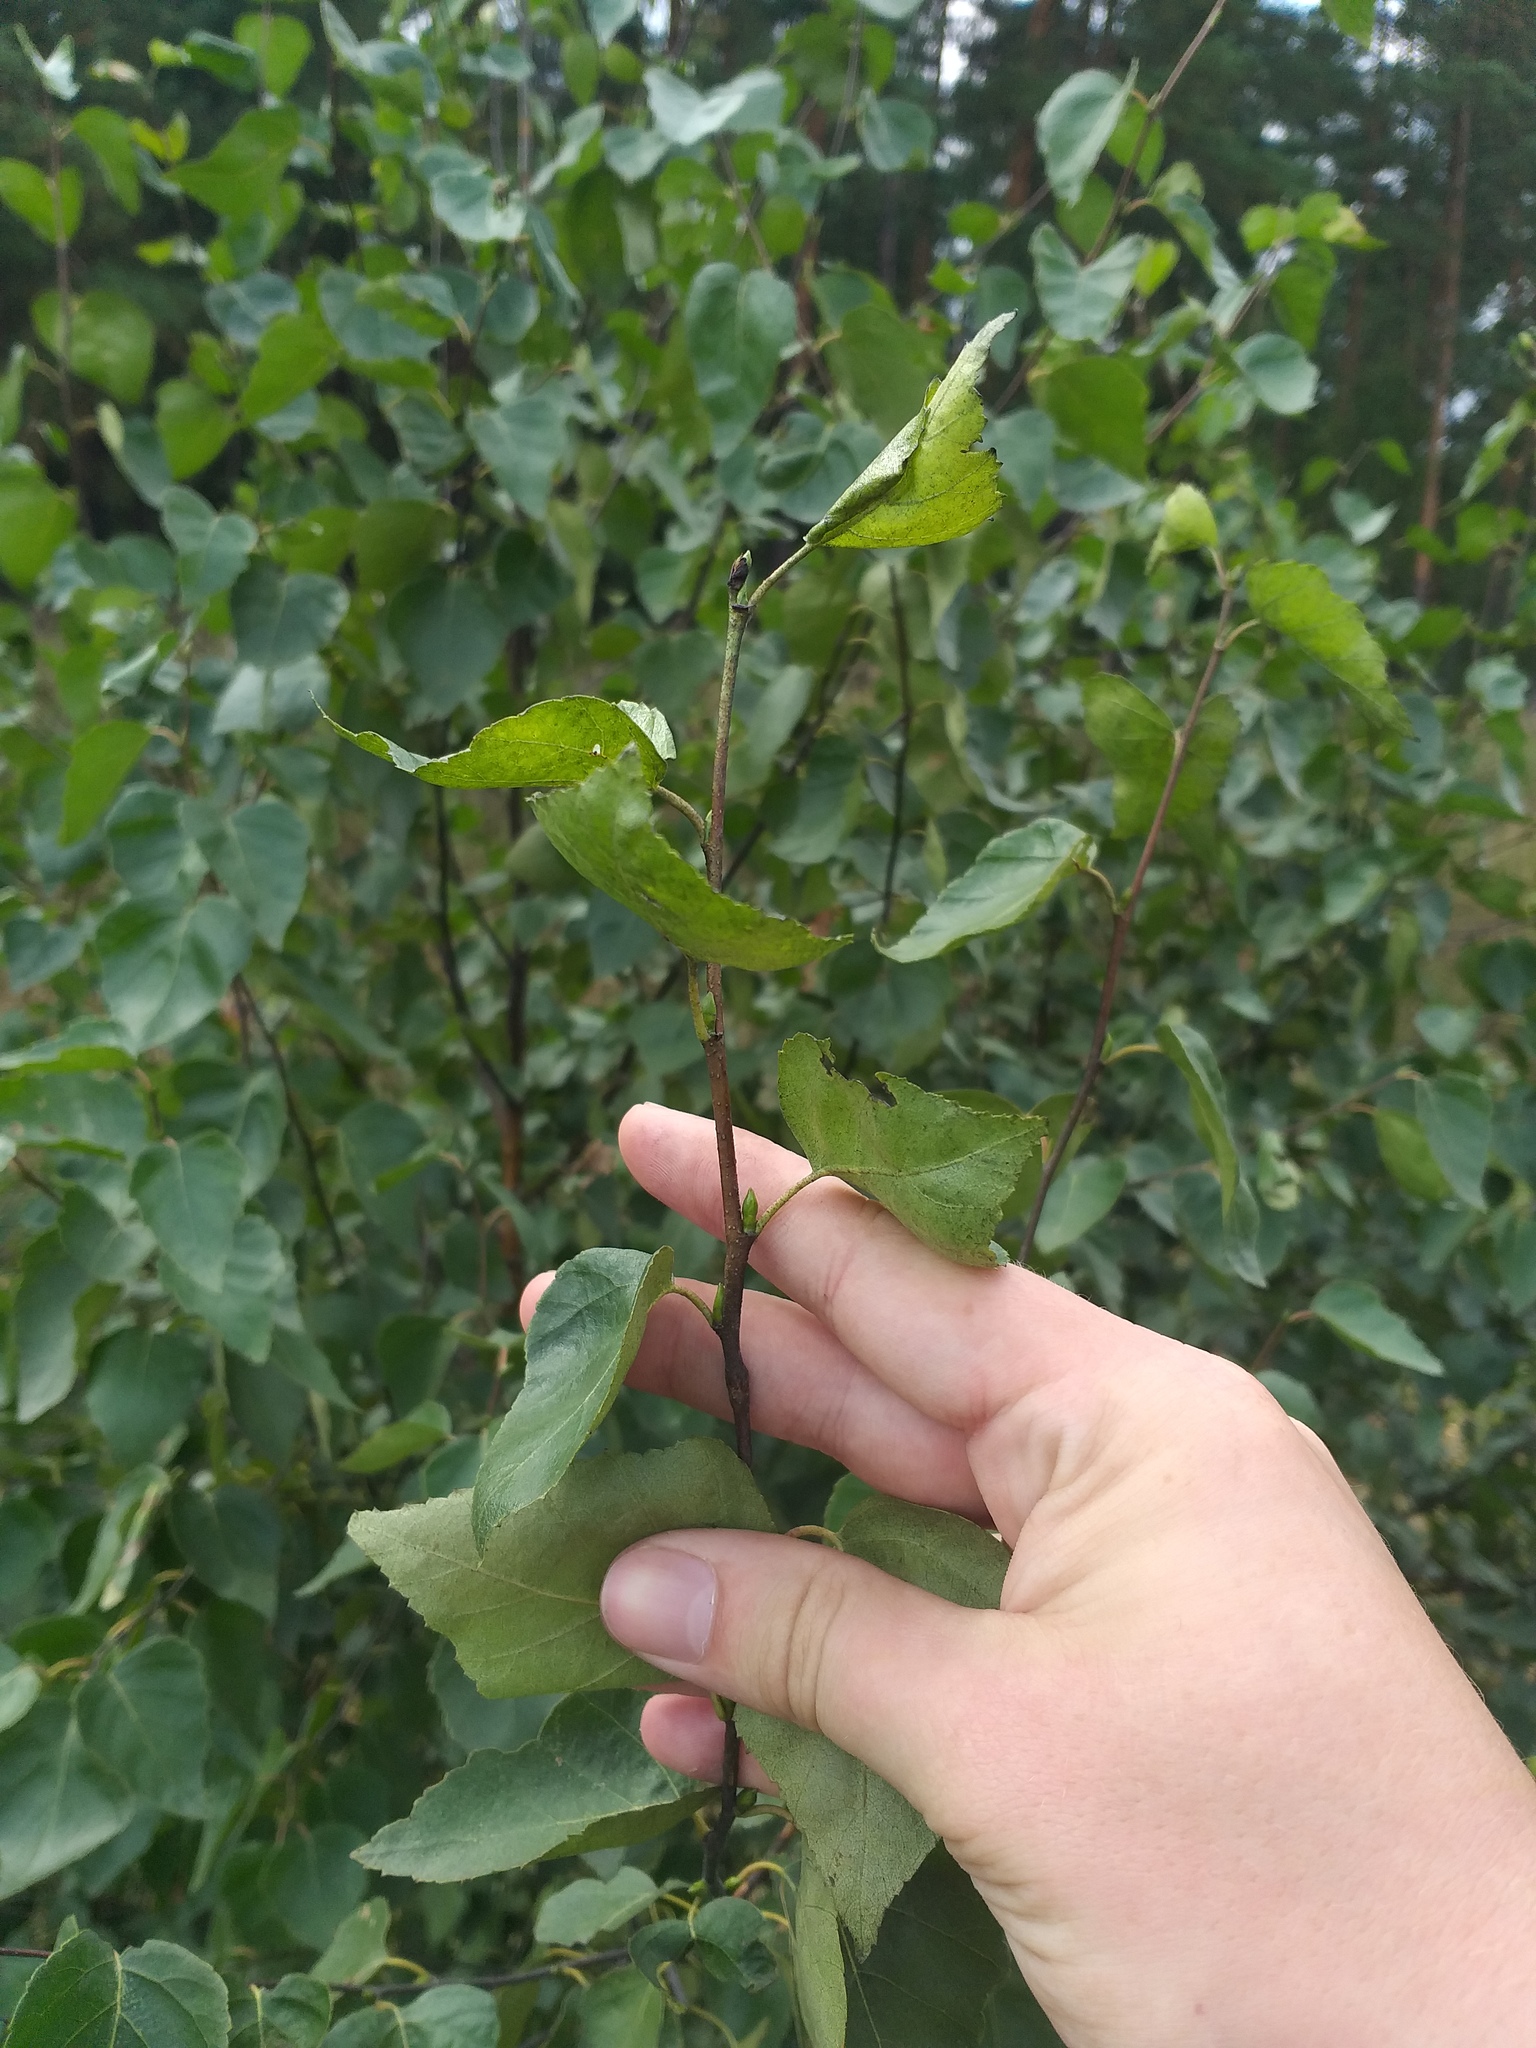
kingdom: Plantae
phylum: Tracheophyta
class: Magnoliopsida
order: Fagales
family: Betulaceae
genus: Betula
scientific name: Betula pendula
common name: Silver birch
